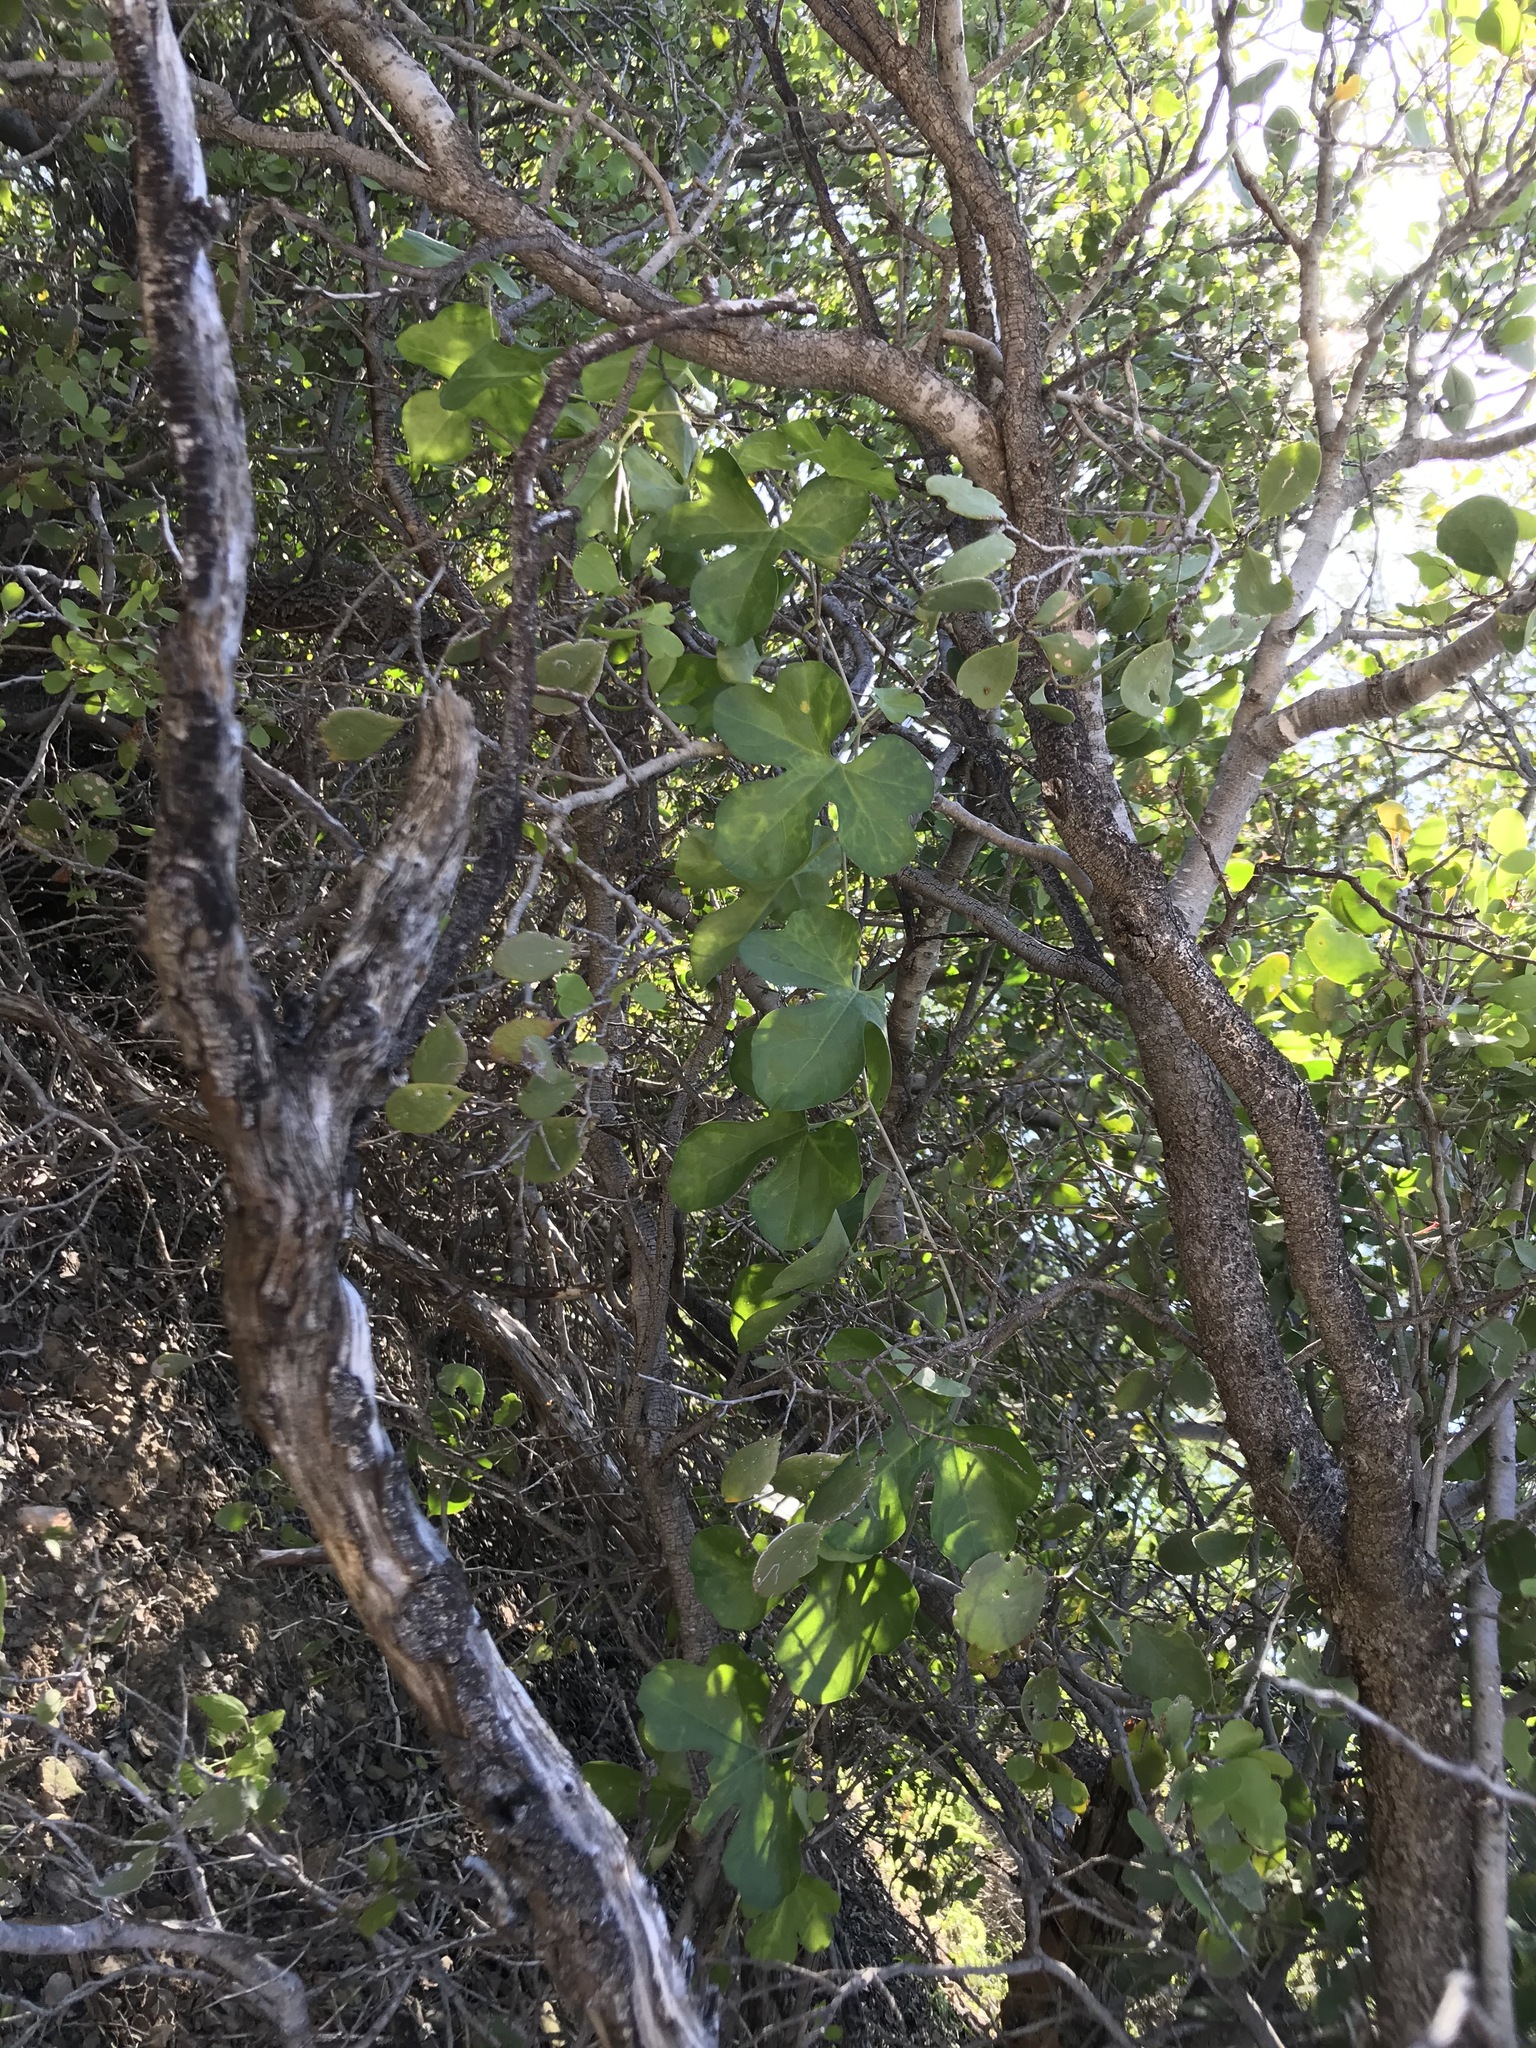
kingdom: Plantae
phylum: Tracheophyta
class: Magnoliopsida
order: Cucurbitales
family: Cucurbitaceae
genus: Ibervillea
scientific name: Ibervillea sonorae
